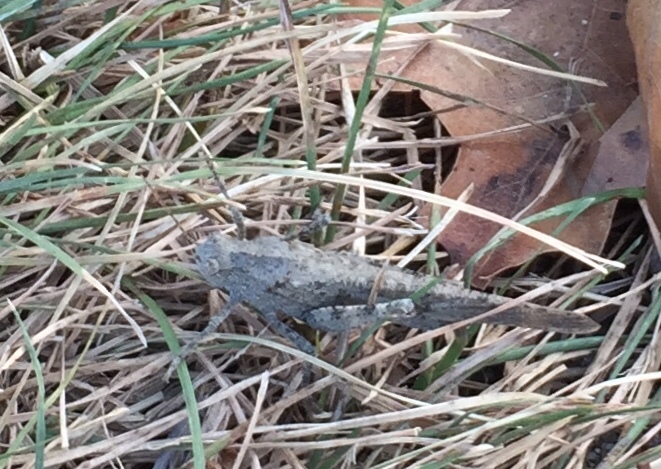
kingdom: Animalia
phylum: Arthropoda
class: Insecta
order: Orthoptera
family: Acrididae
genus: Dissosteira
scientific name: Dissosteira carolina
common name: Carolina grasshopper
